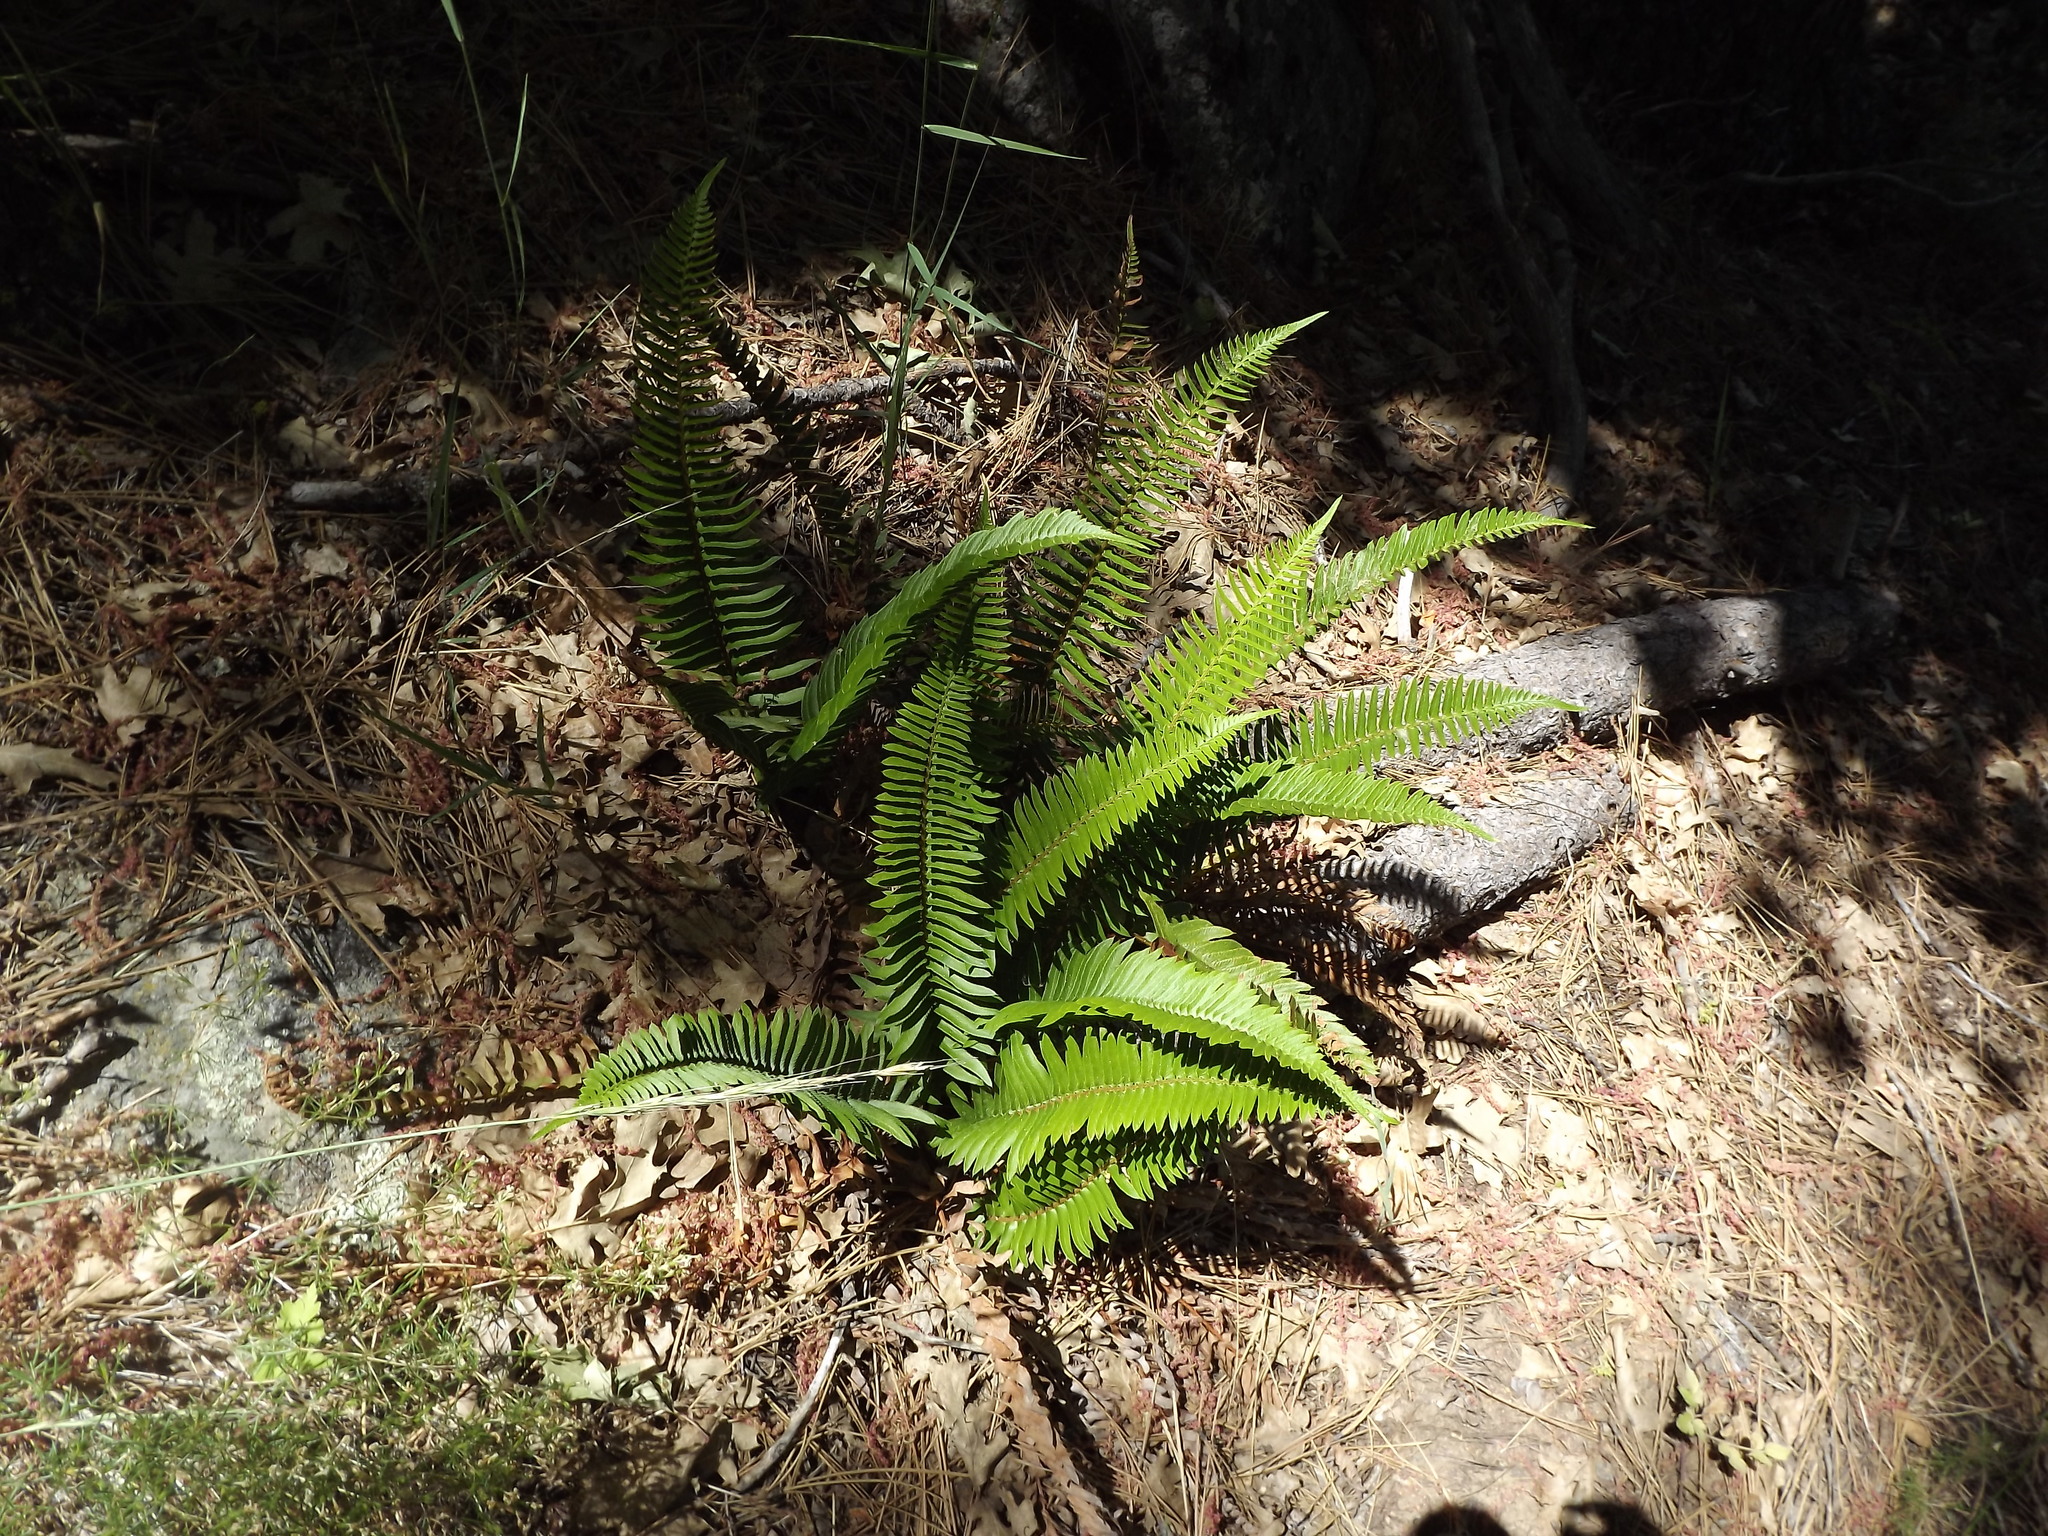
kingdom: Plantae
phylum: Tracheophyta
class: Polypodiopsida
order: Polypodiales
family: Dryopteridaceae
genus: Polystichum
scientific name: Polystichum imbricans
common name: Dwarf western sword fern
